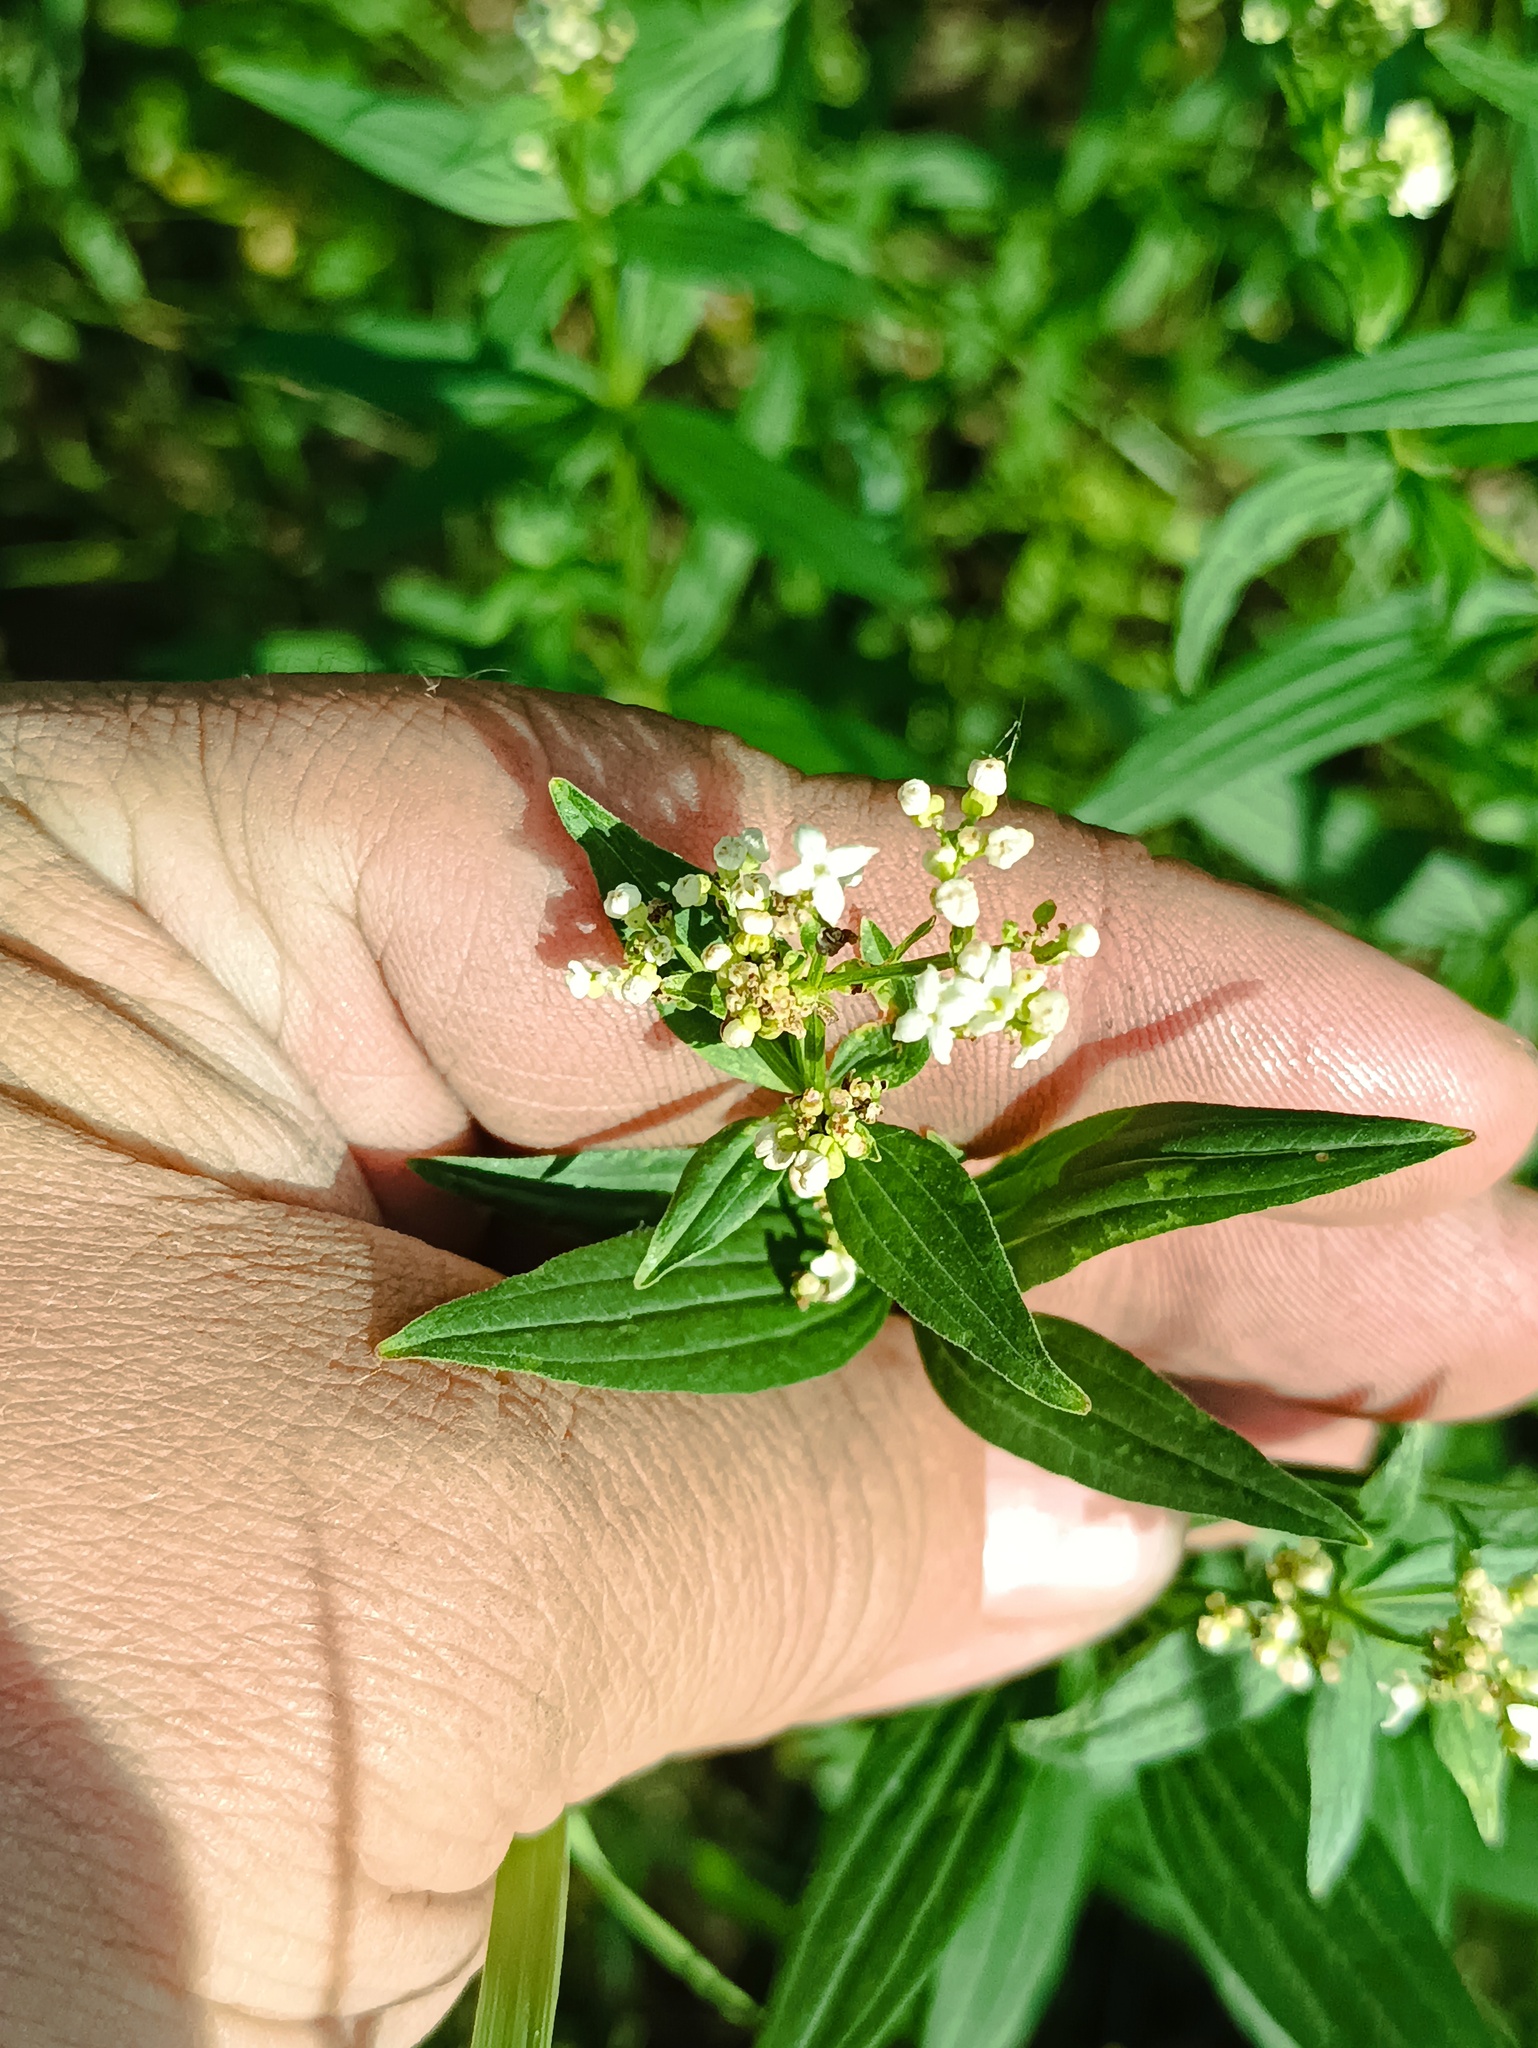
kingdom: Plantae
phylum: Tracheophyta
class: Magnoliopsida
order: Gentianales
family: Rubiaceae
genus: Galium
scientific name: Galium rubioides
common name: European bedstraw
